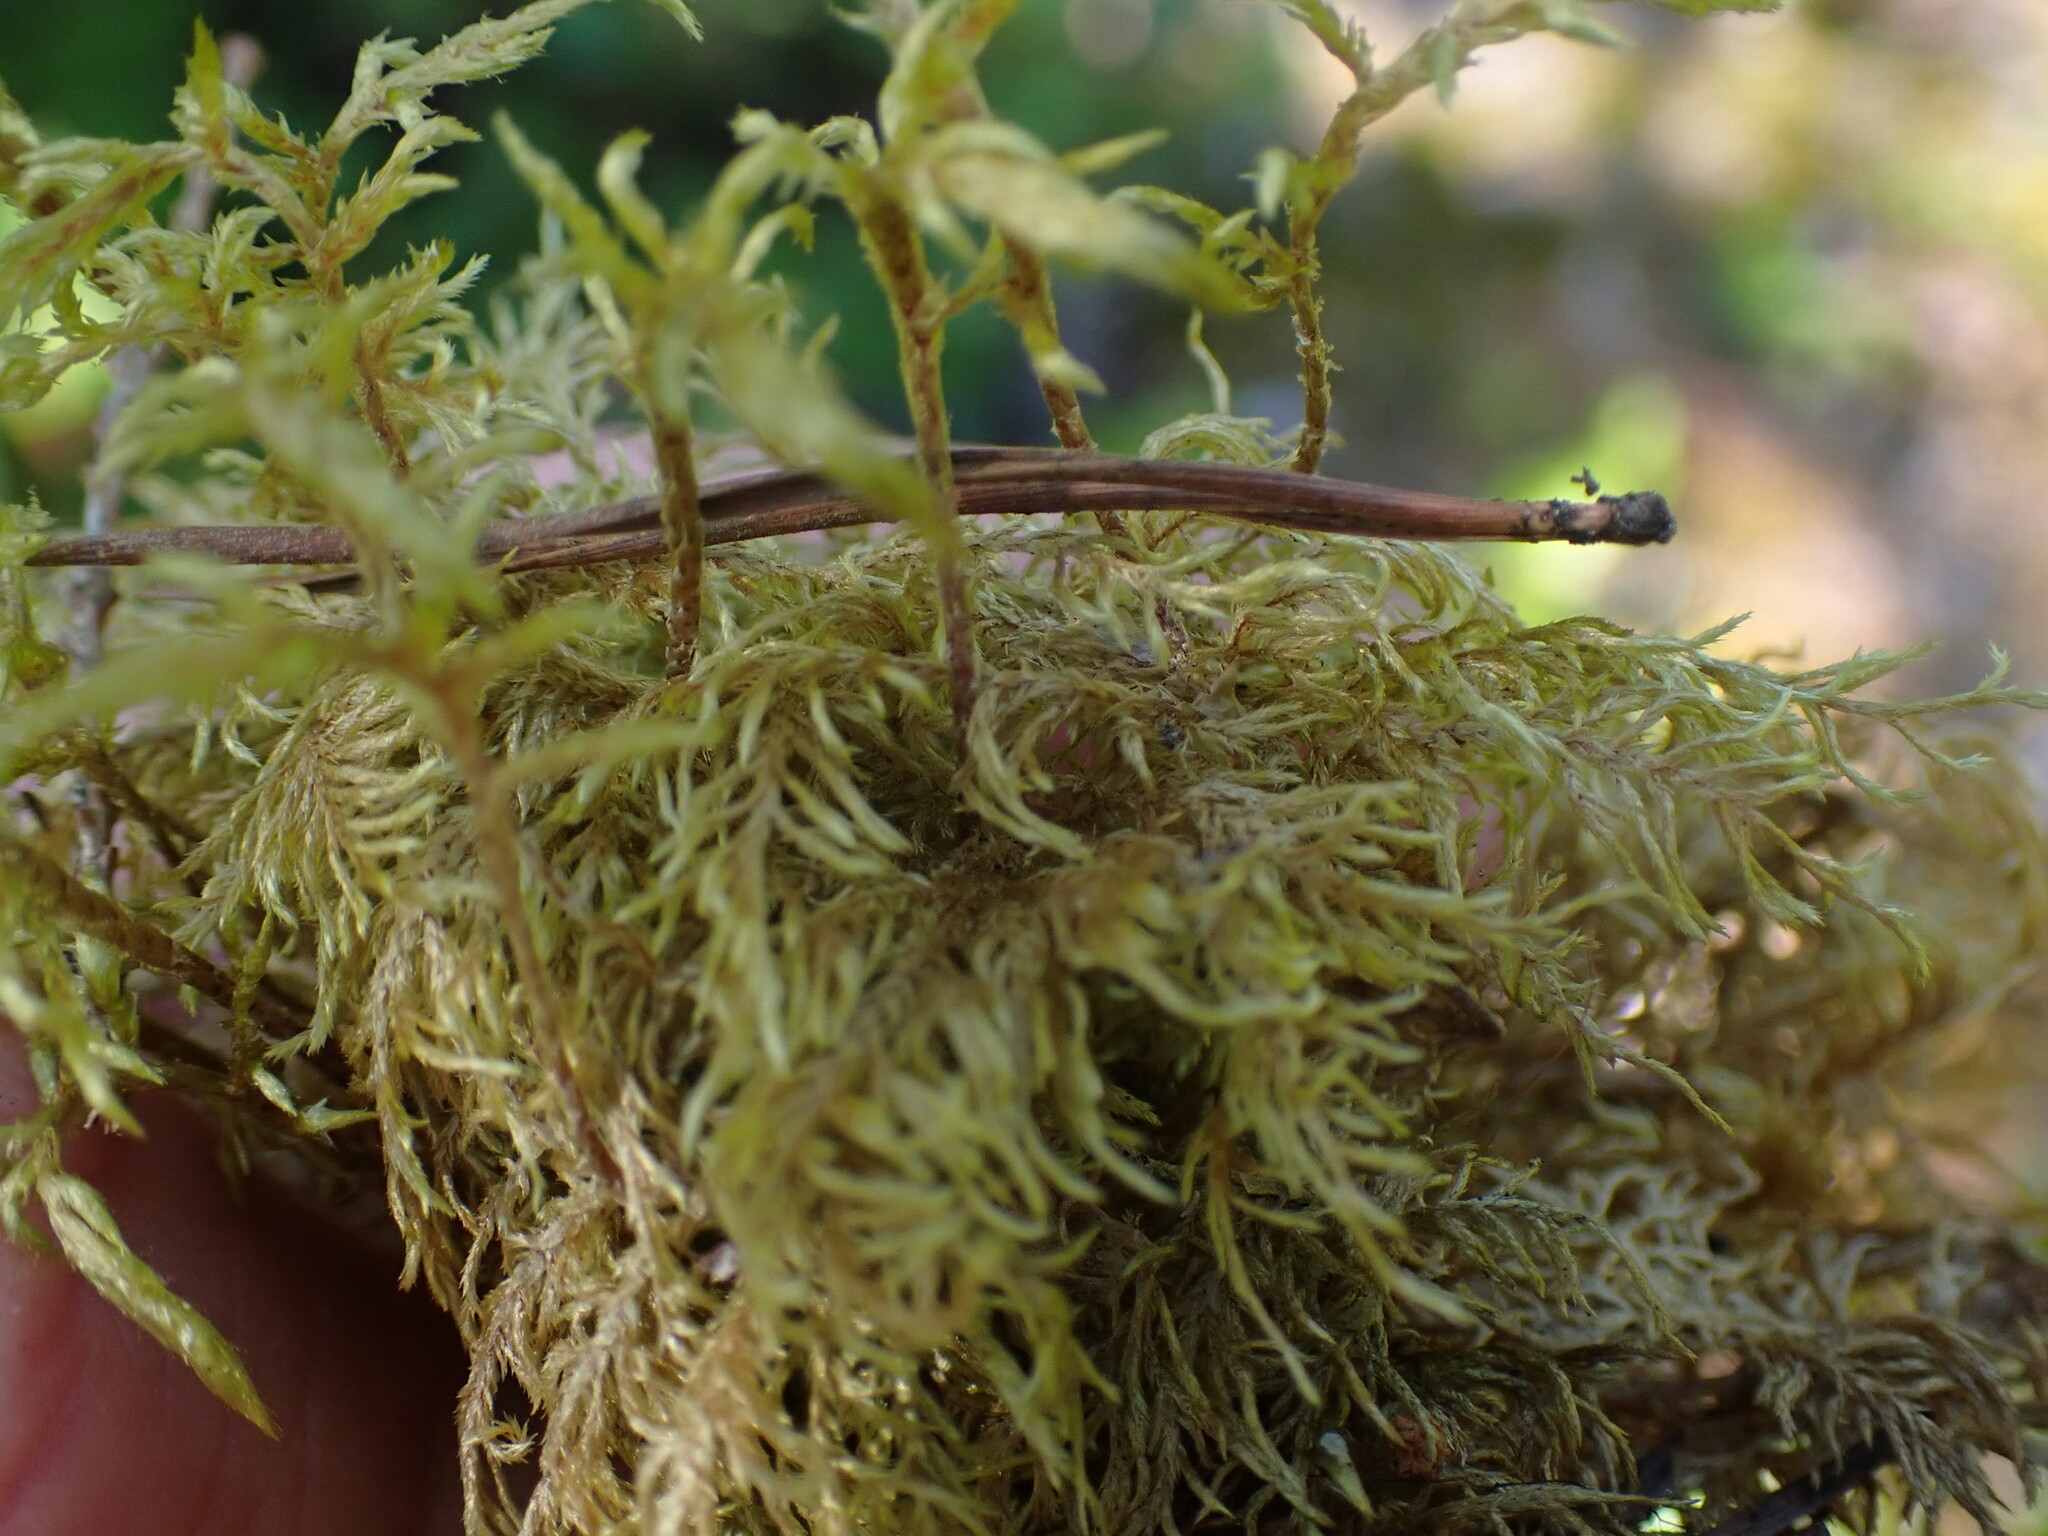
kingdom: Plantae
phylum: Bryophyta
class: Bryopsida
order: Hypnales
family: Hylocomiaceae
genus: Hylocomium
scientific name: Hylocomium splendens
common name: Stairstep moss
